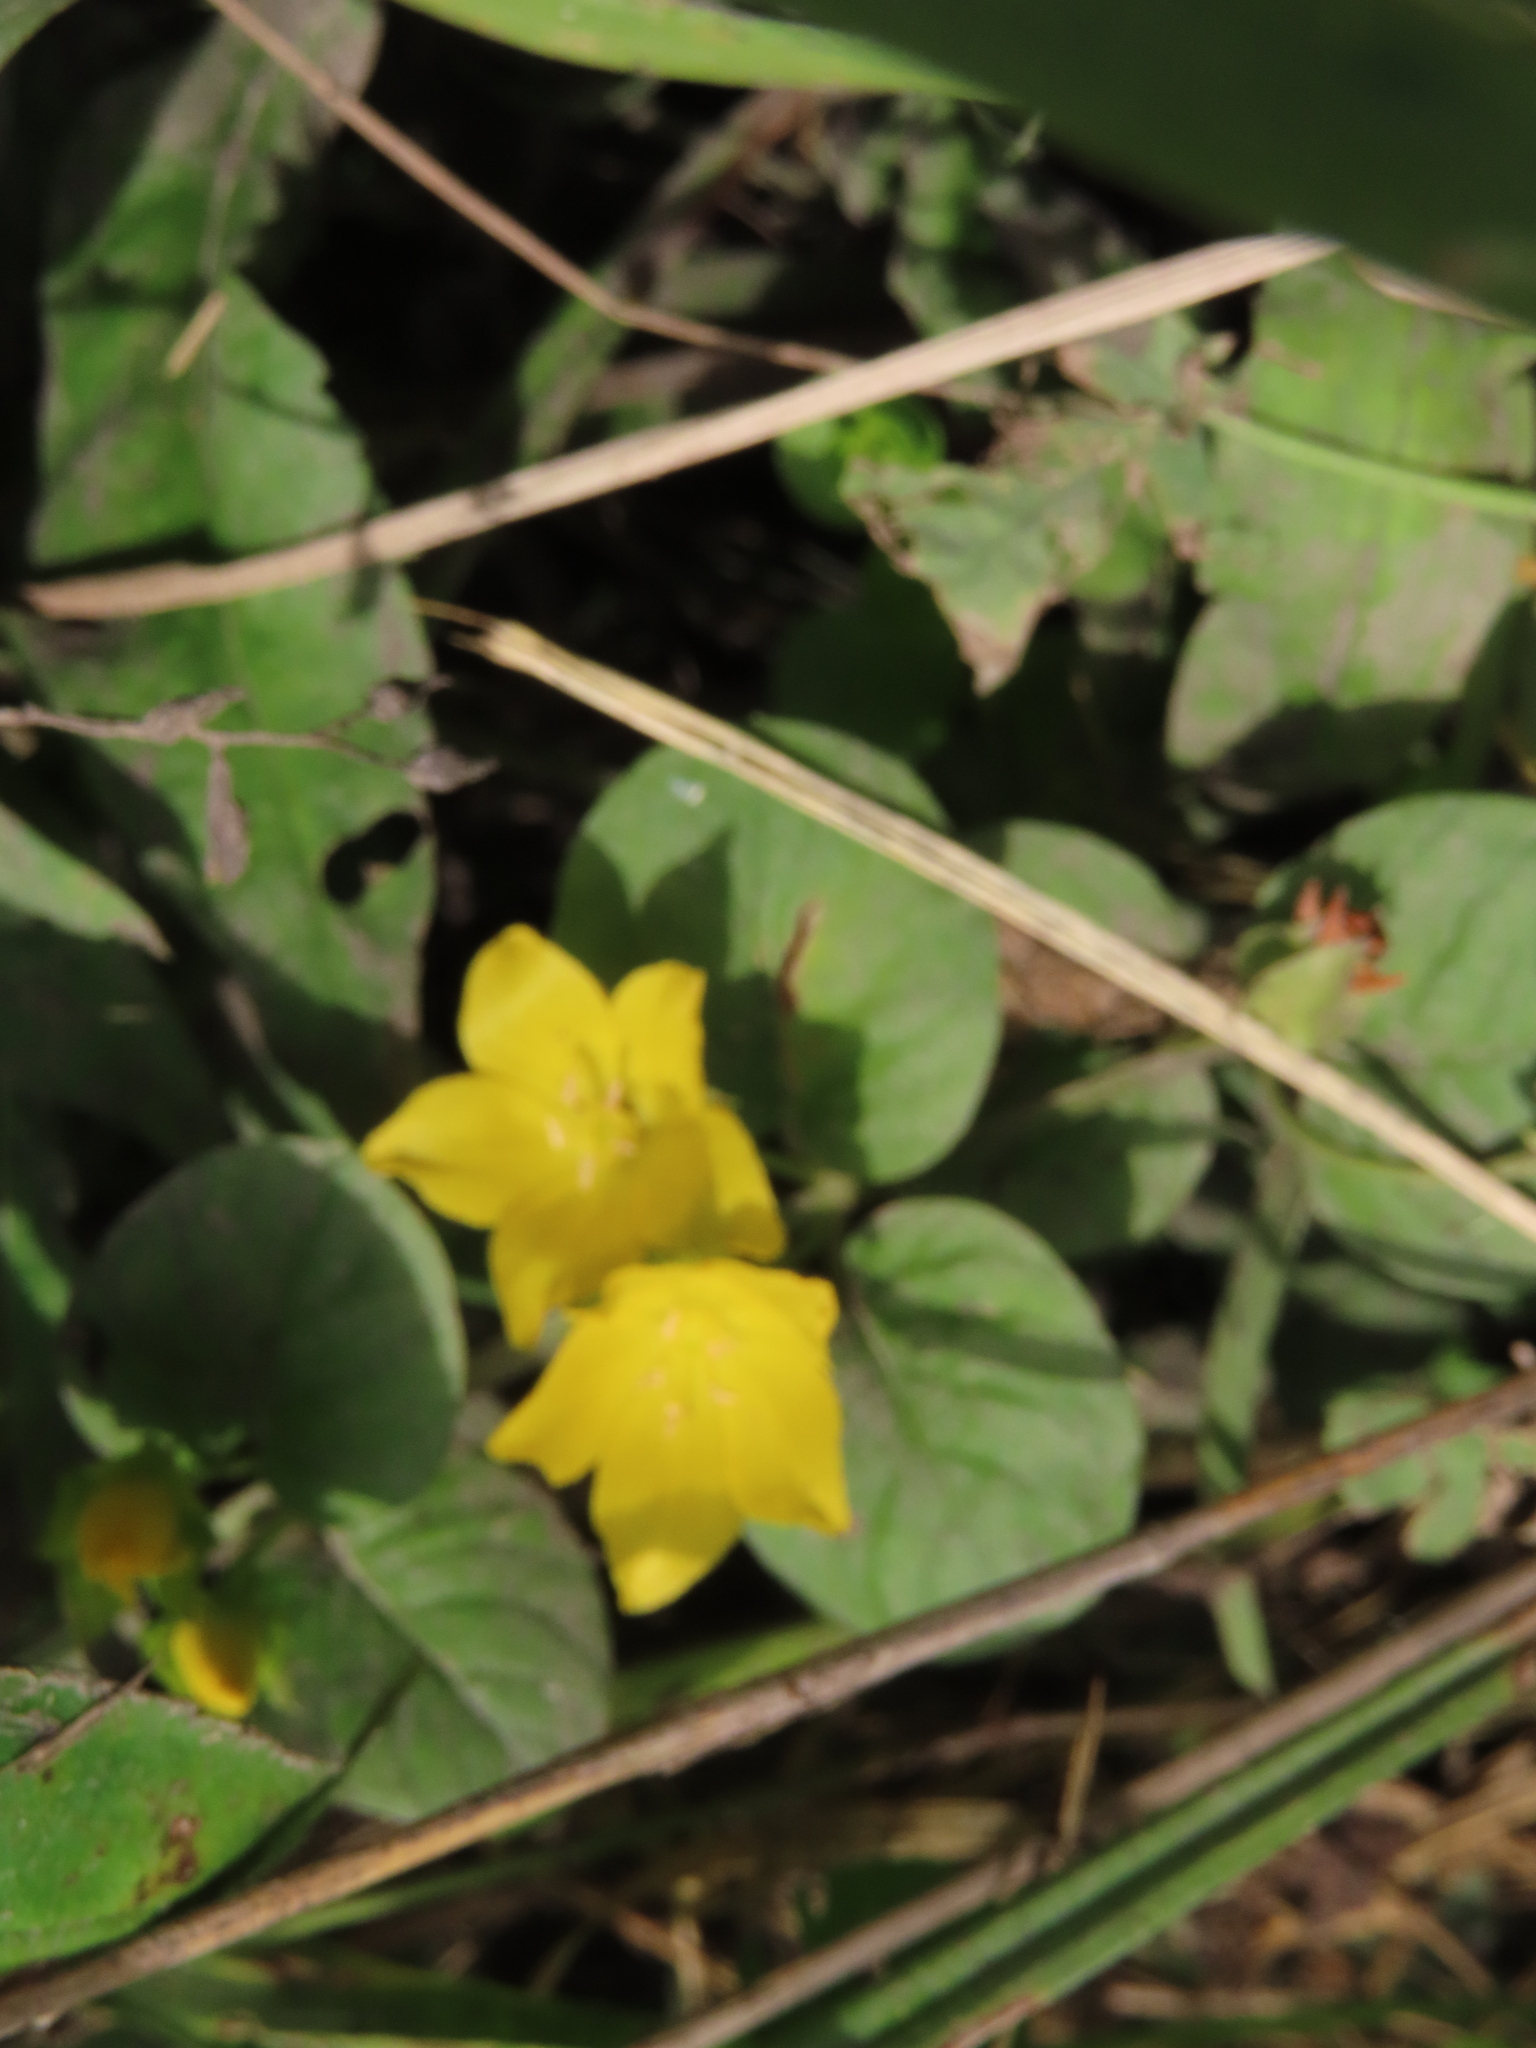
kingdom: Plantae
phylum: Tracheophyta
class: Magnoliopsida
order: Ericales
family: Primulaceae
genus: Lysimachia
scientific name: Lysimachia nummularia
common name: Moneywort
